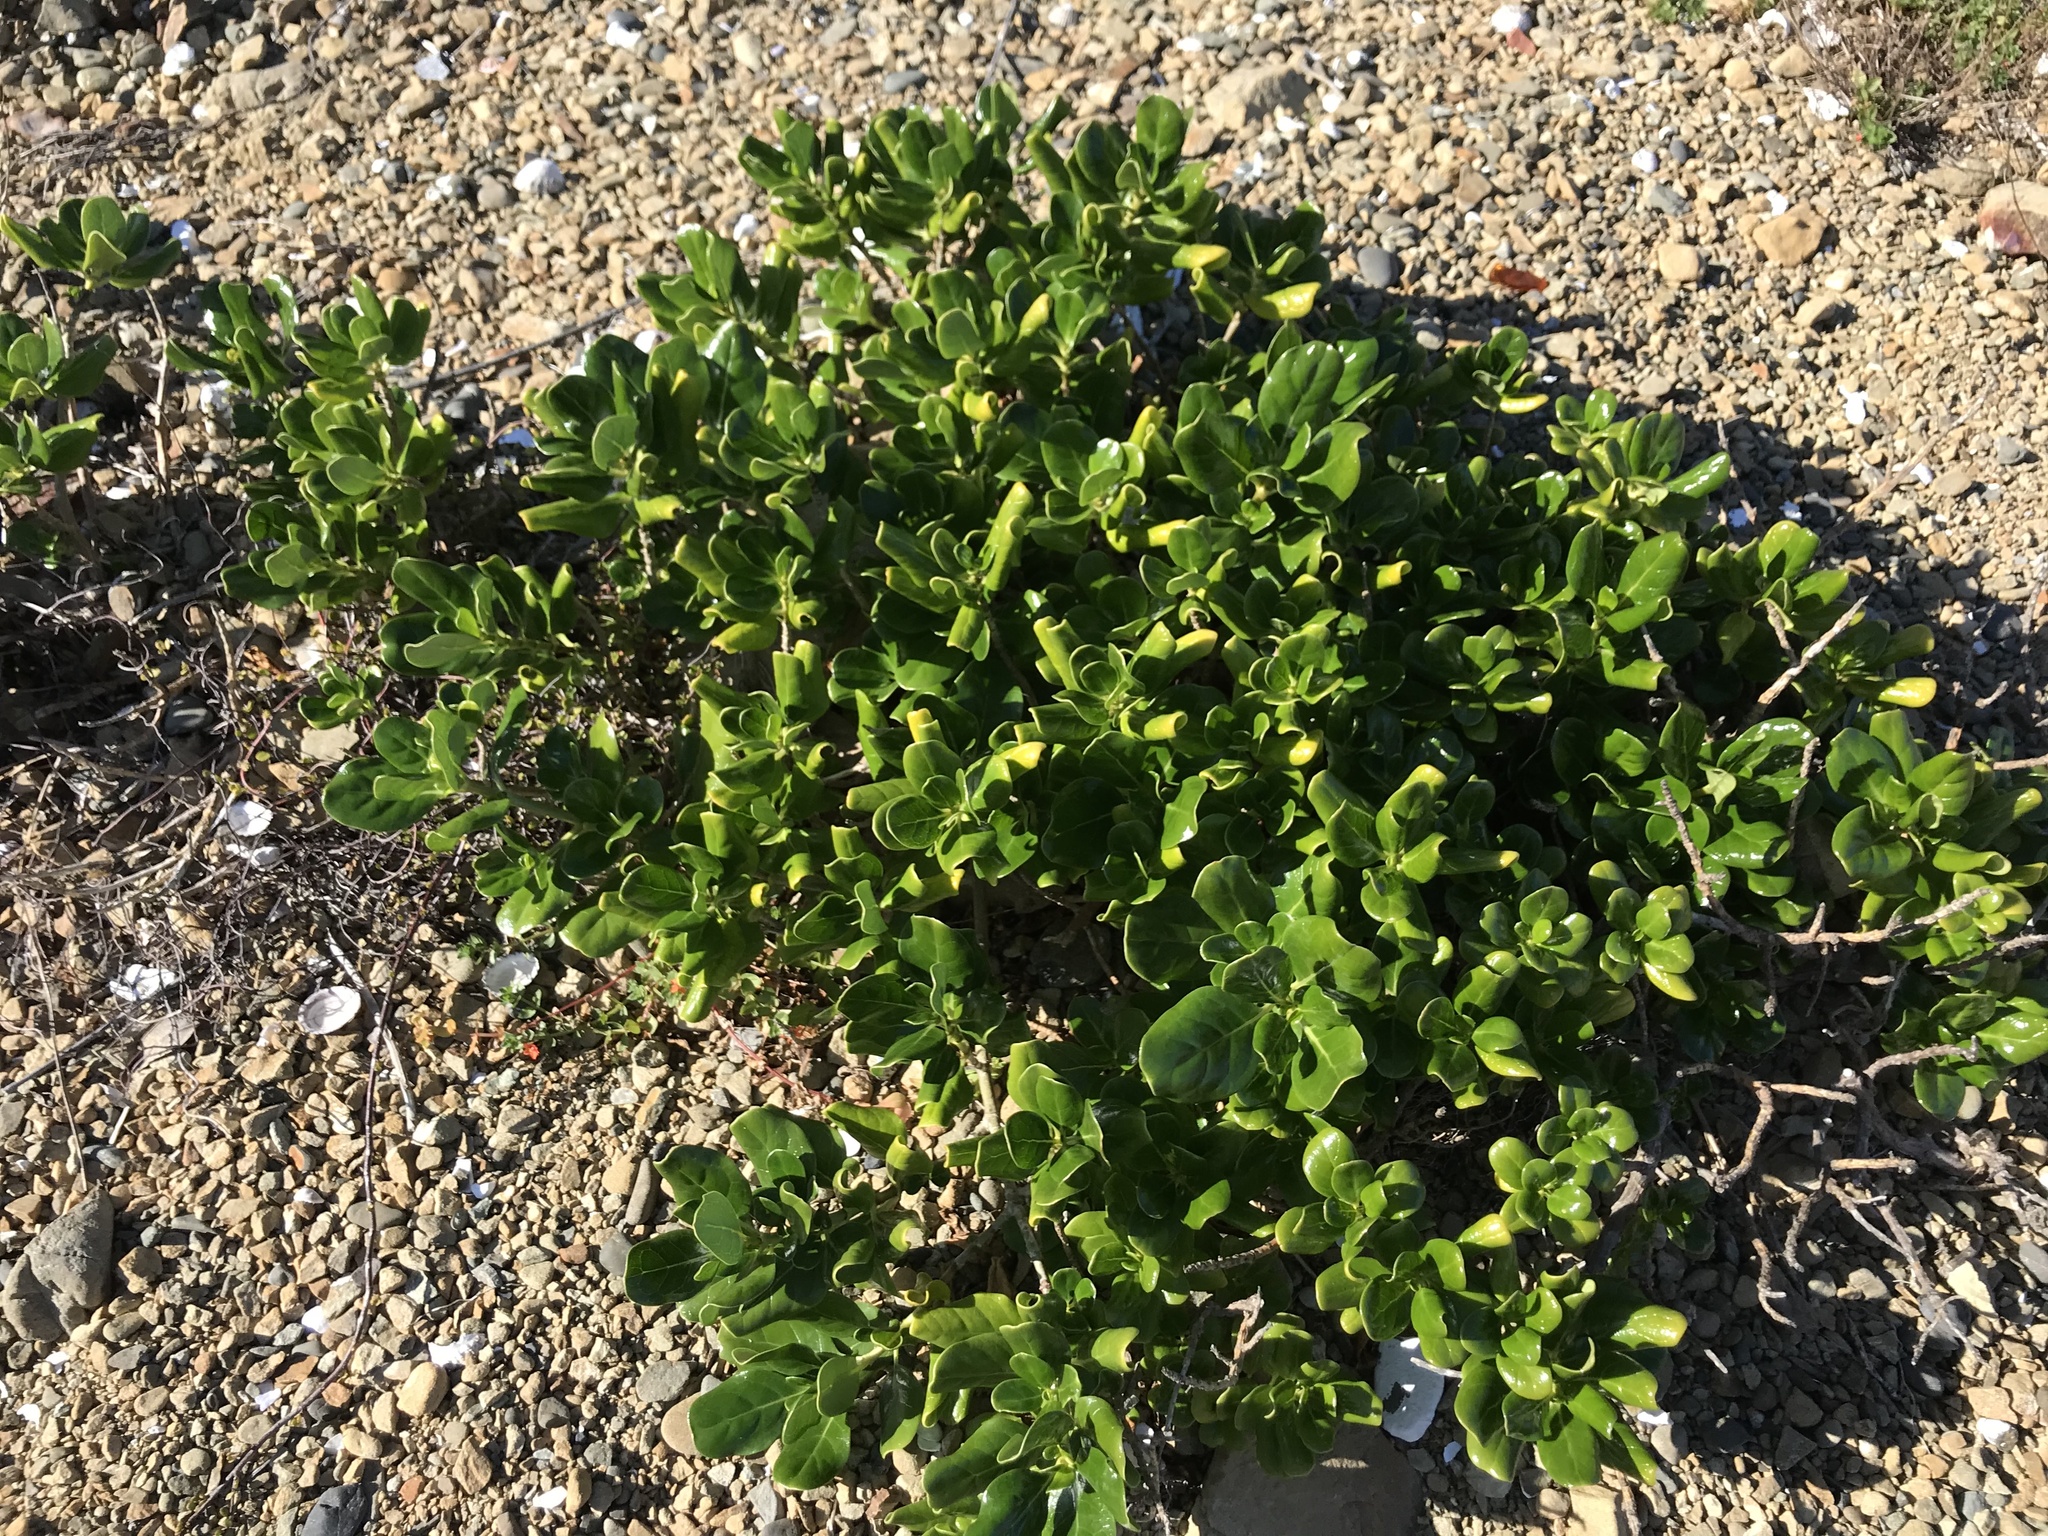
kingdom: Plantae
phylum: Tracheophyta
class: Magnoliopsida
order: Gentianales
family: Rubiaceae
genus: Coprosma
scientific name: Coprosma repens
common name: Tree bedstraw
